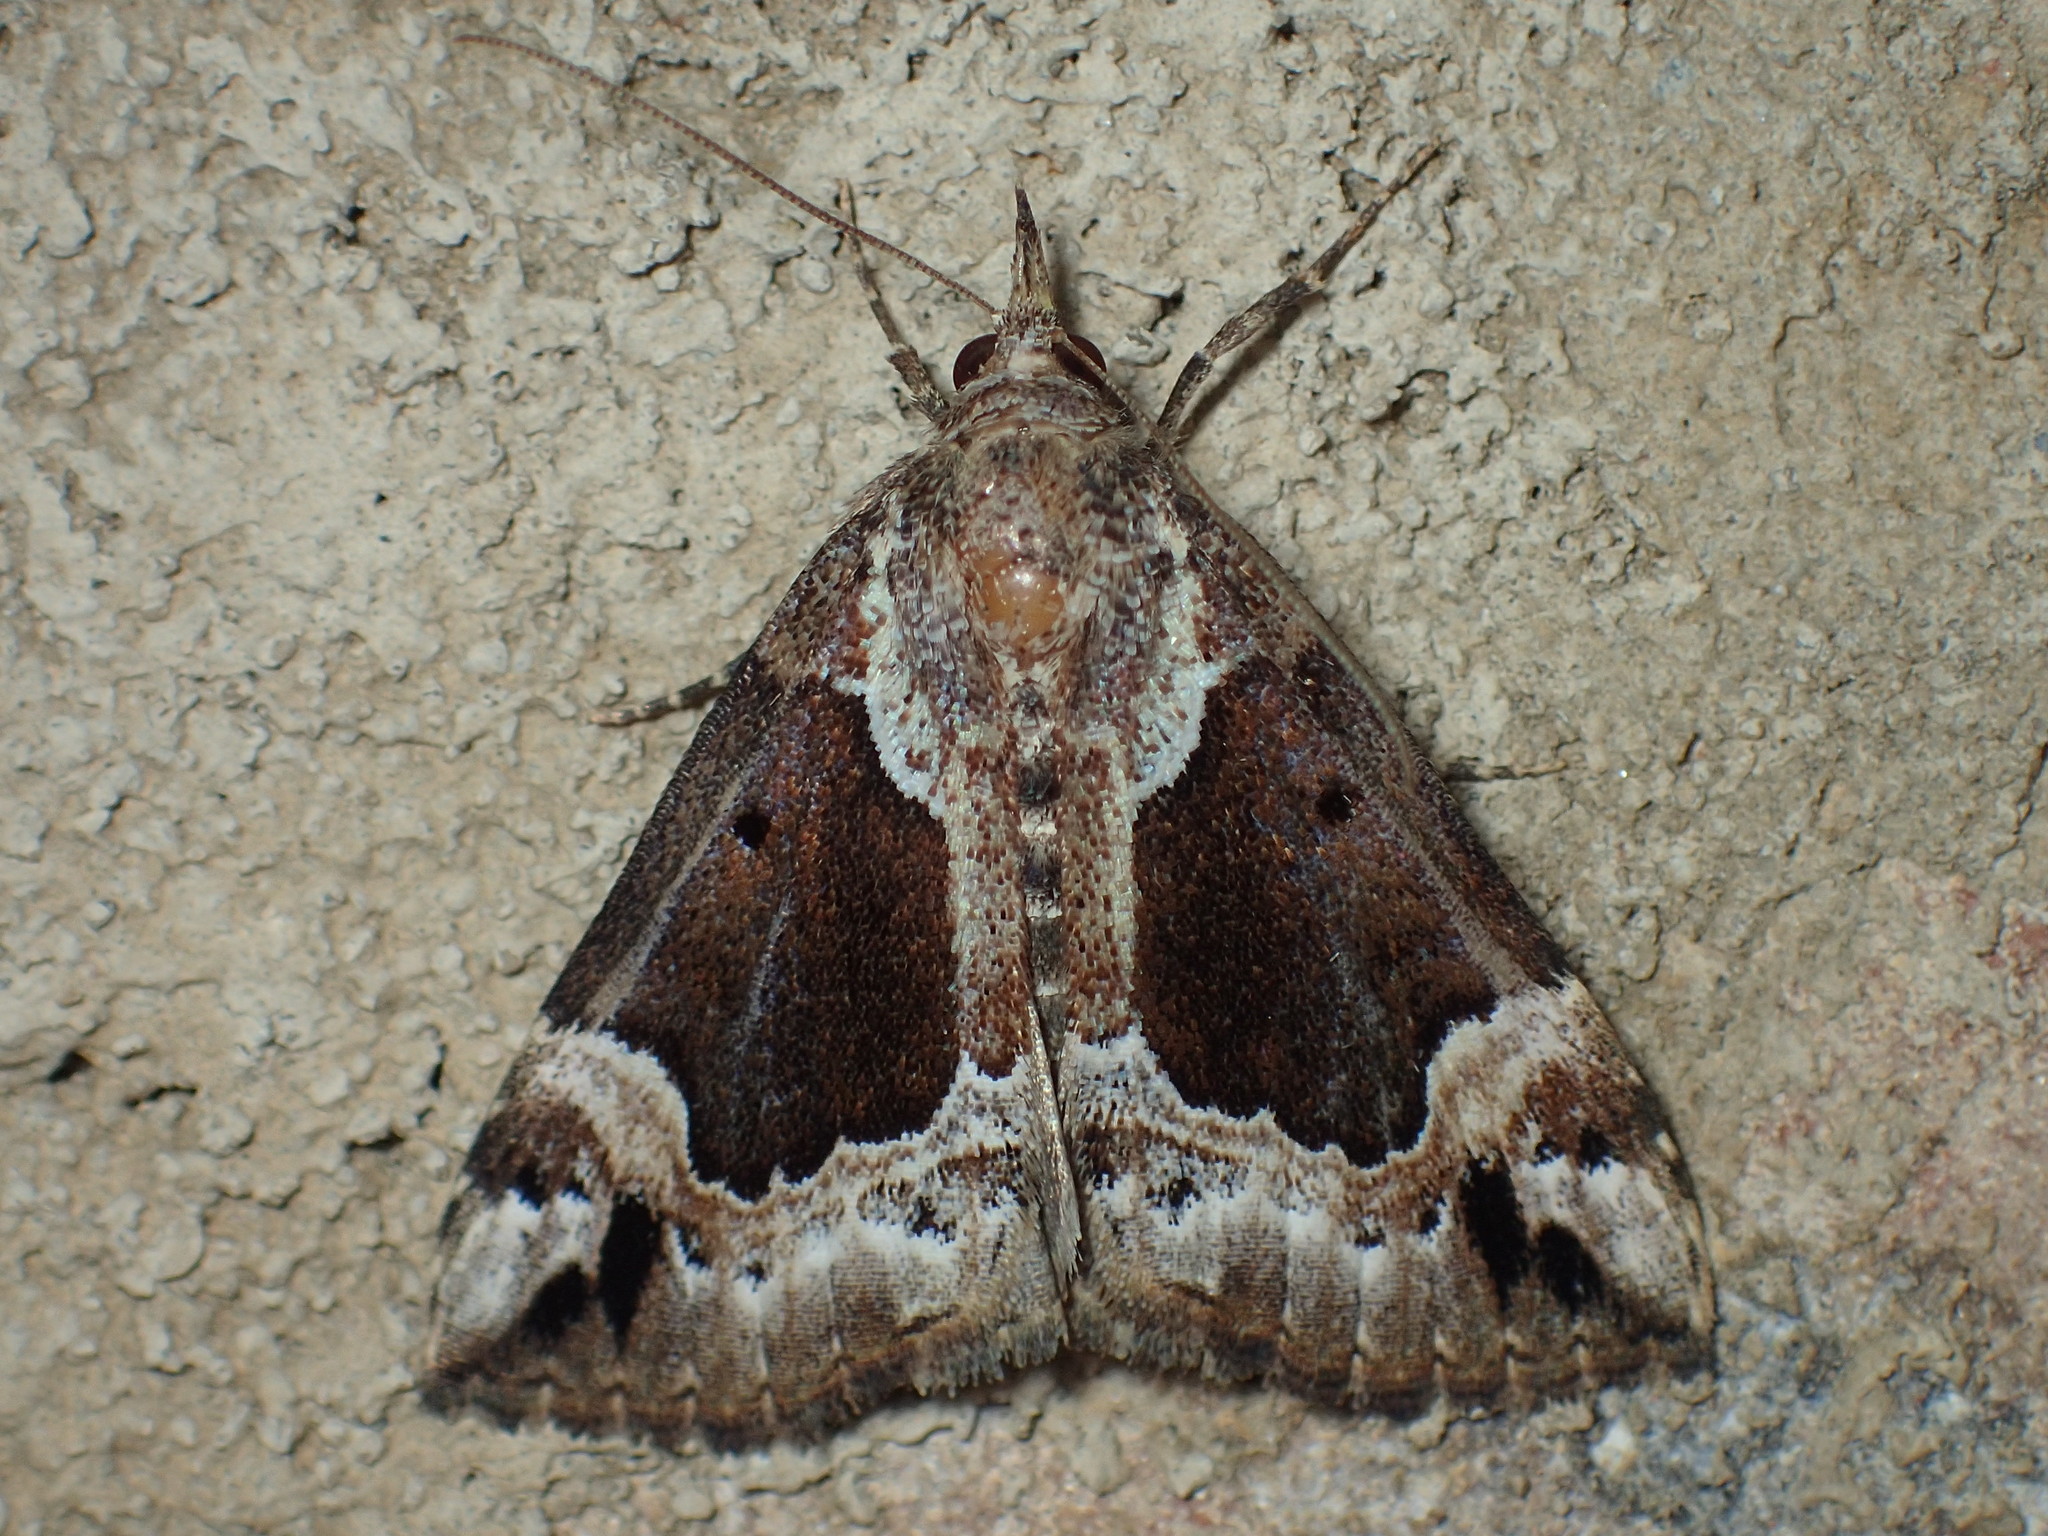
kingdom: Animalia
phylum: Arthropoda
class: Insecta
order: Lepidoptera
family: Erebidae
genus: Hypena
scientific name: Hypena baltimoralis
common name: Baltimore snout
